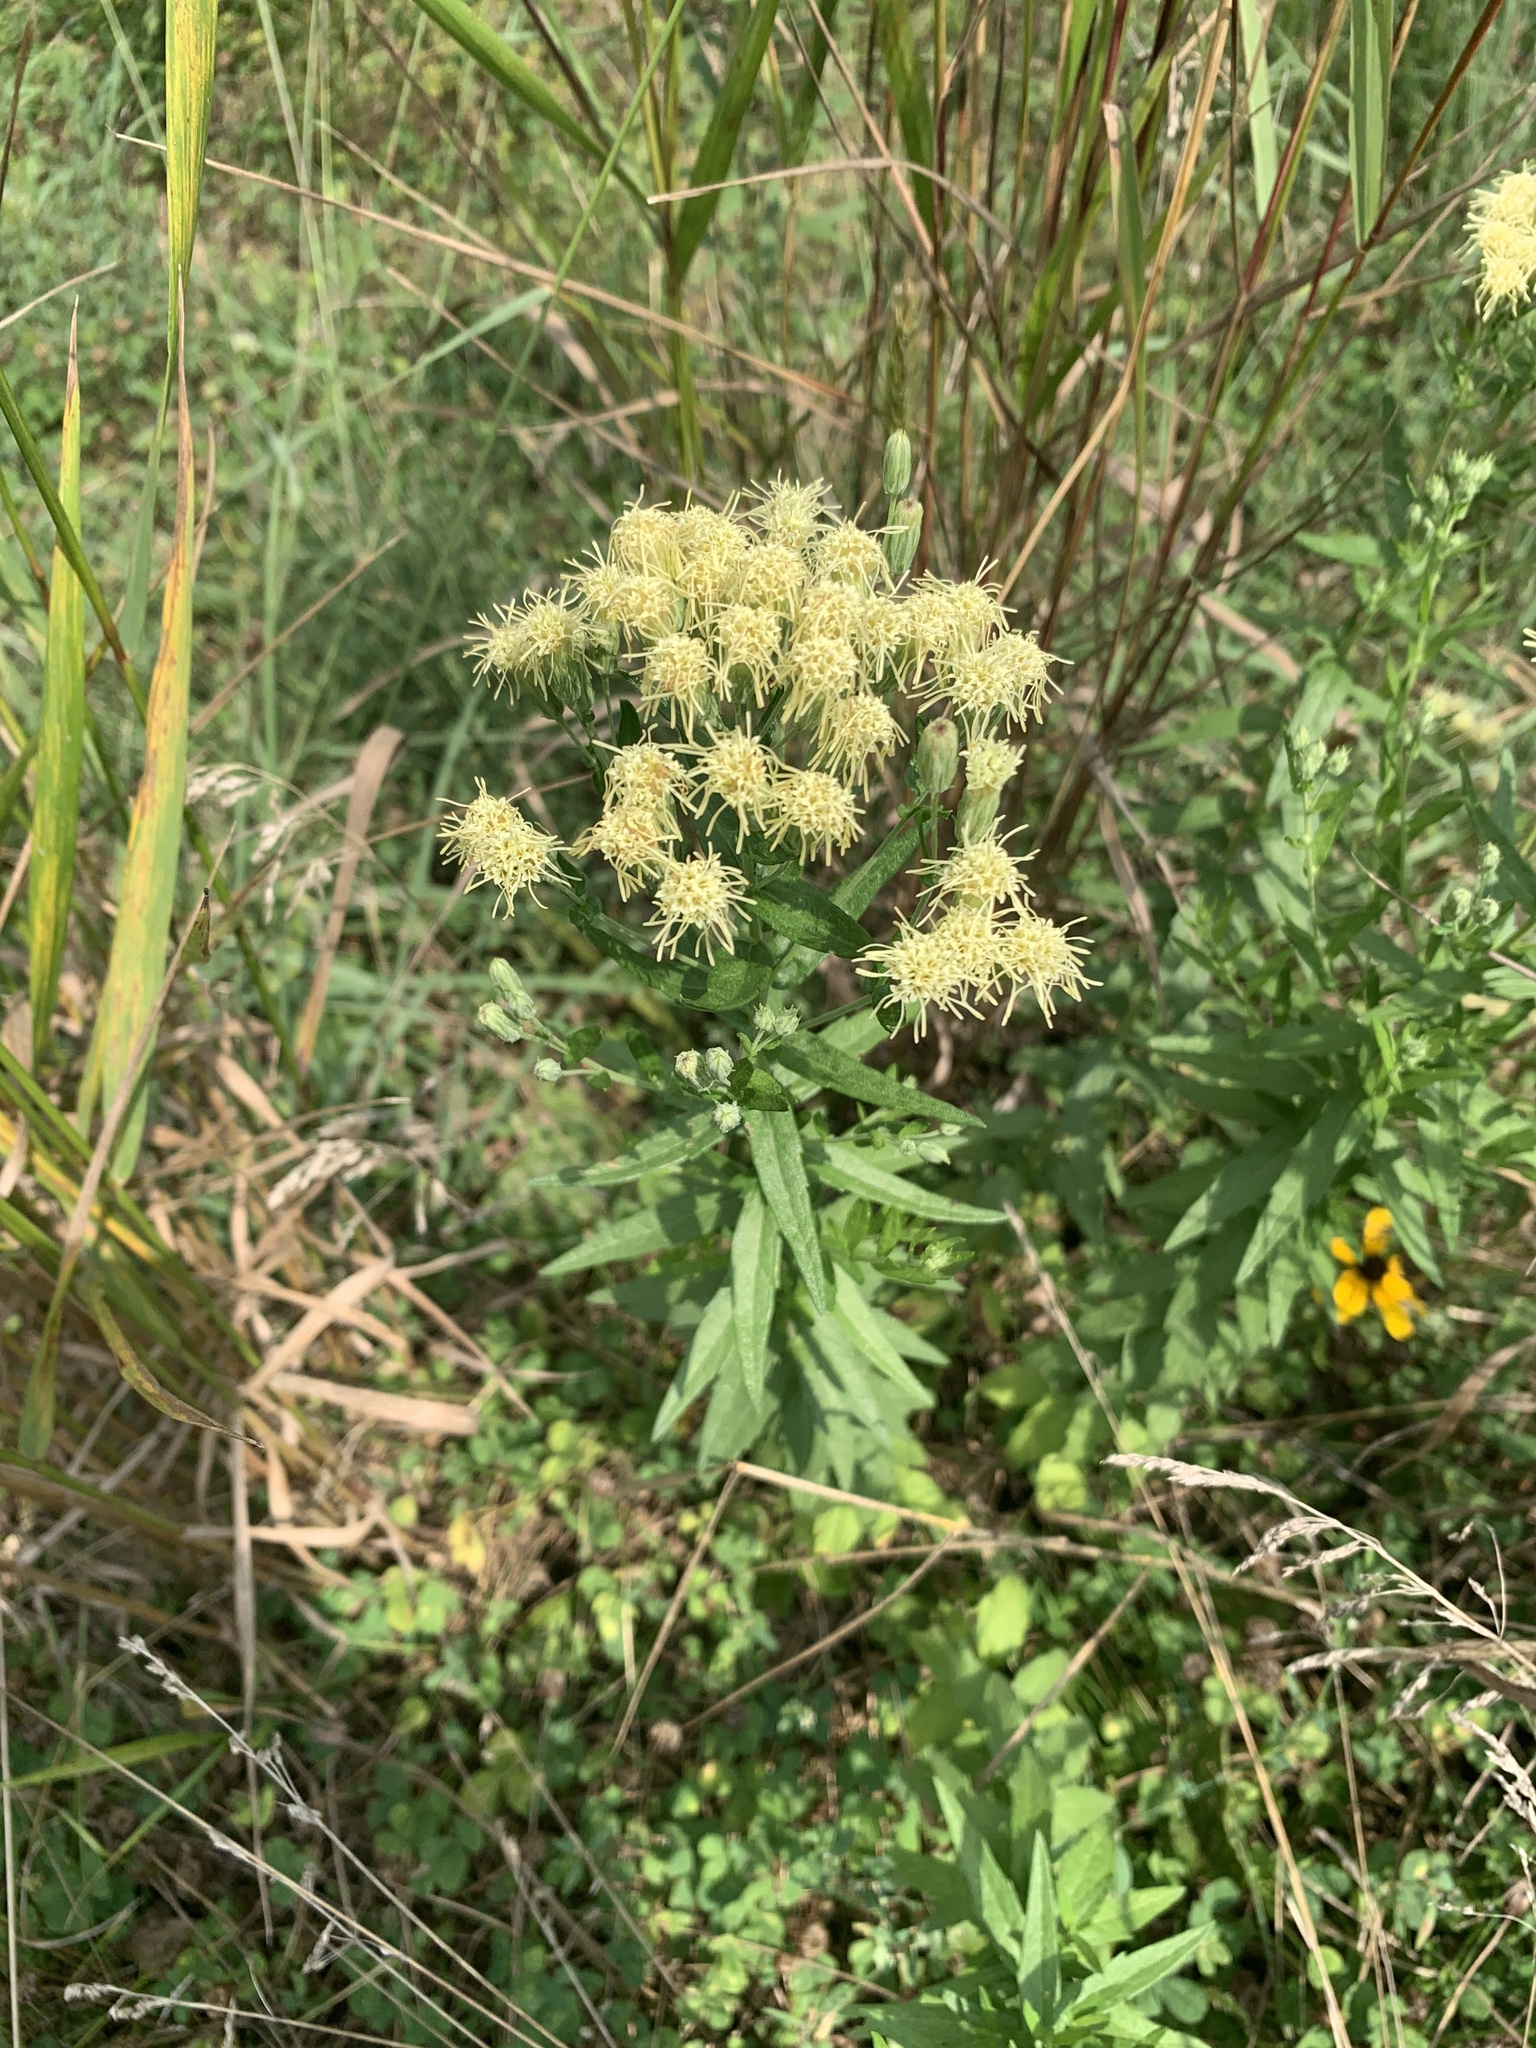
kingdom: Plantae
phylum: Tracheophyta
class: Magnoliopsida
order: Asterales
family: Asteraceae
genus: Brickellia
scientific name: Brickellia eupatorioides
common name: False boneset
